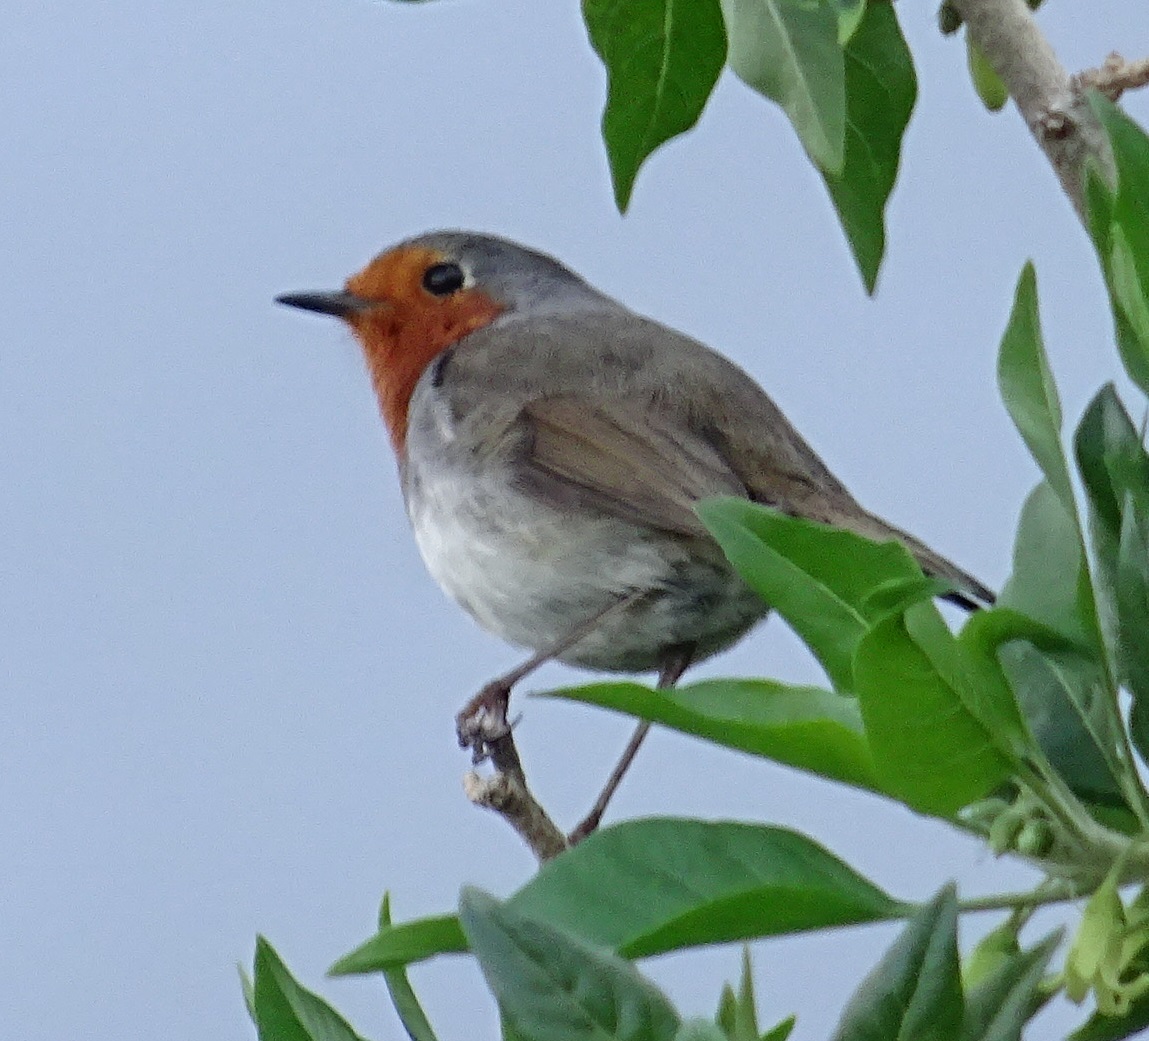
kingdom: Animalia
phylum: Chordata
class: Aves
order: Passeriformes
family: Muscicapidae
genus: Erithacus
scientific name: Erithacus rubecula
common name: European robin
